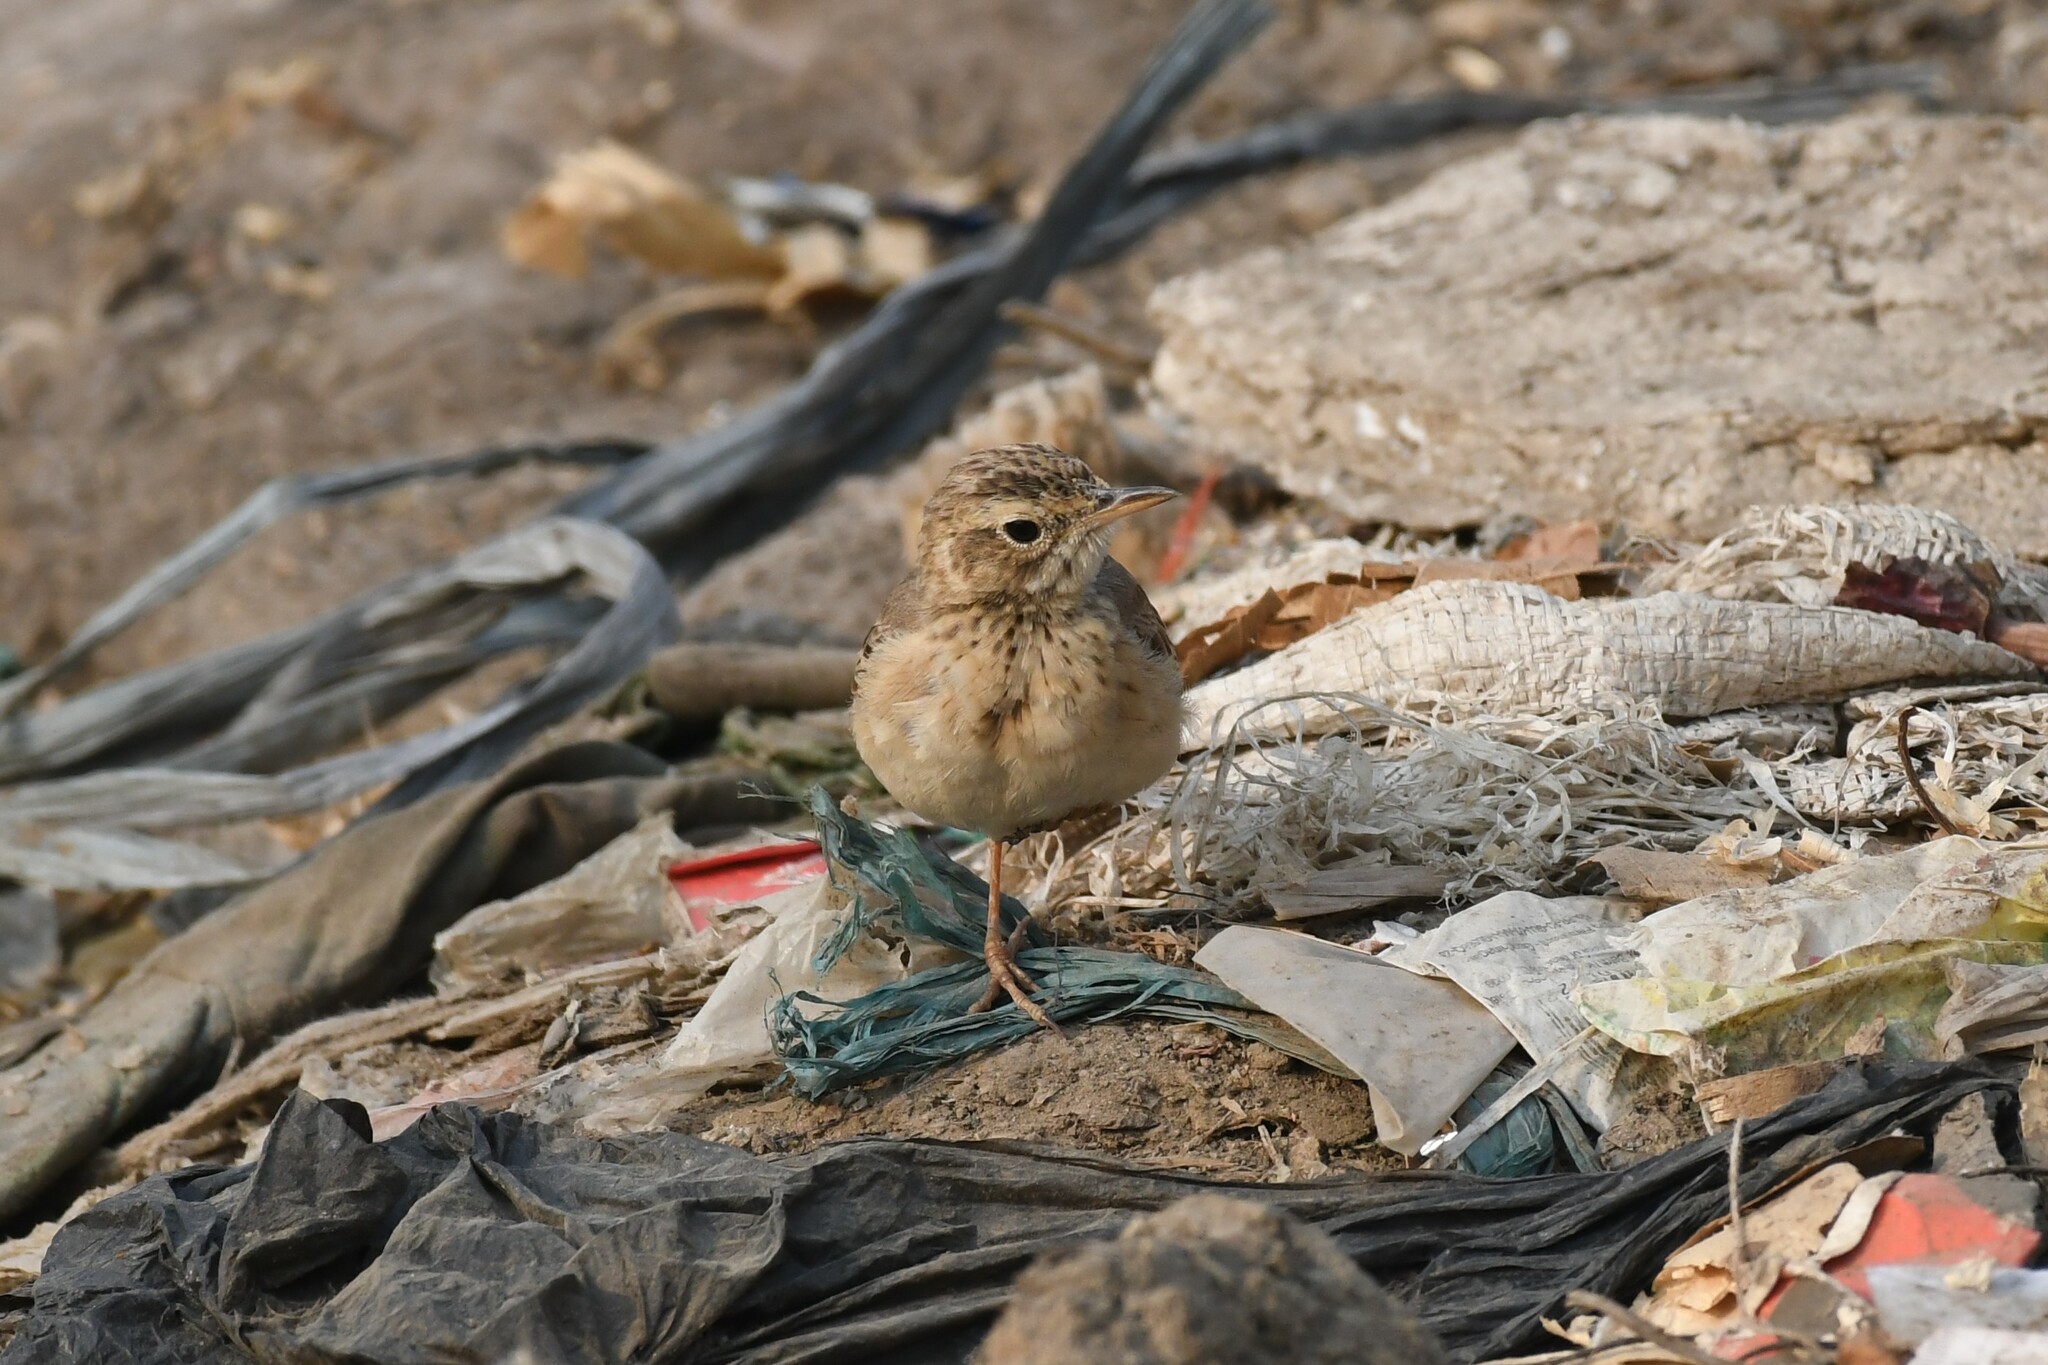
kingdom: Animalia
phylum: Chordata
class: Aves
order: Passeriformes
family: Motacillidae
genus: Anthus
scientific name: Anthus rufulus
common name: Paddyfield pipit
